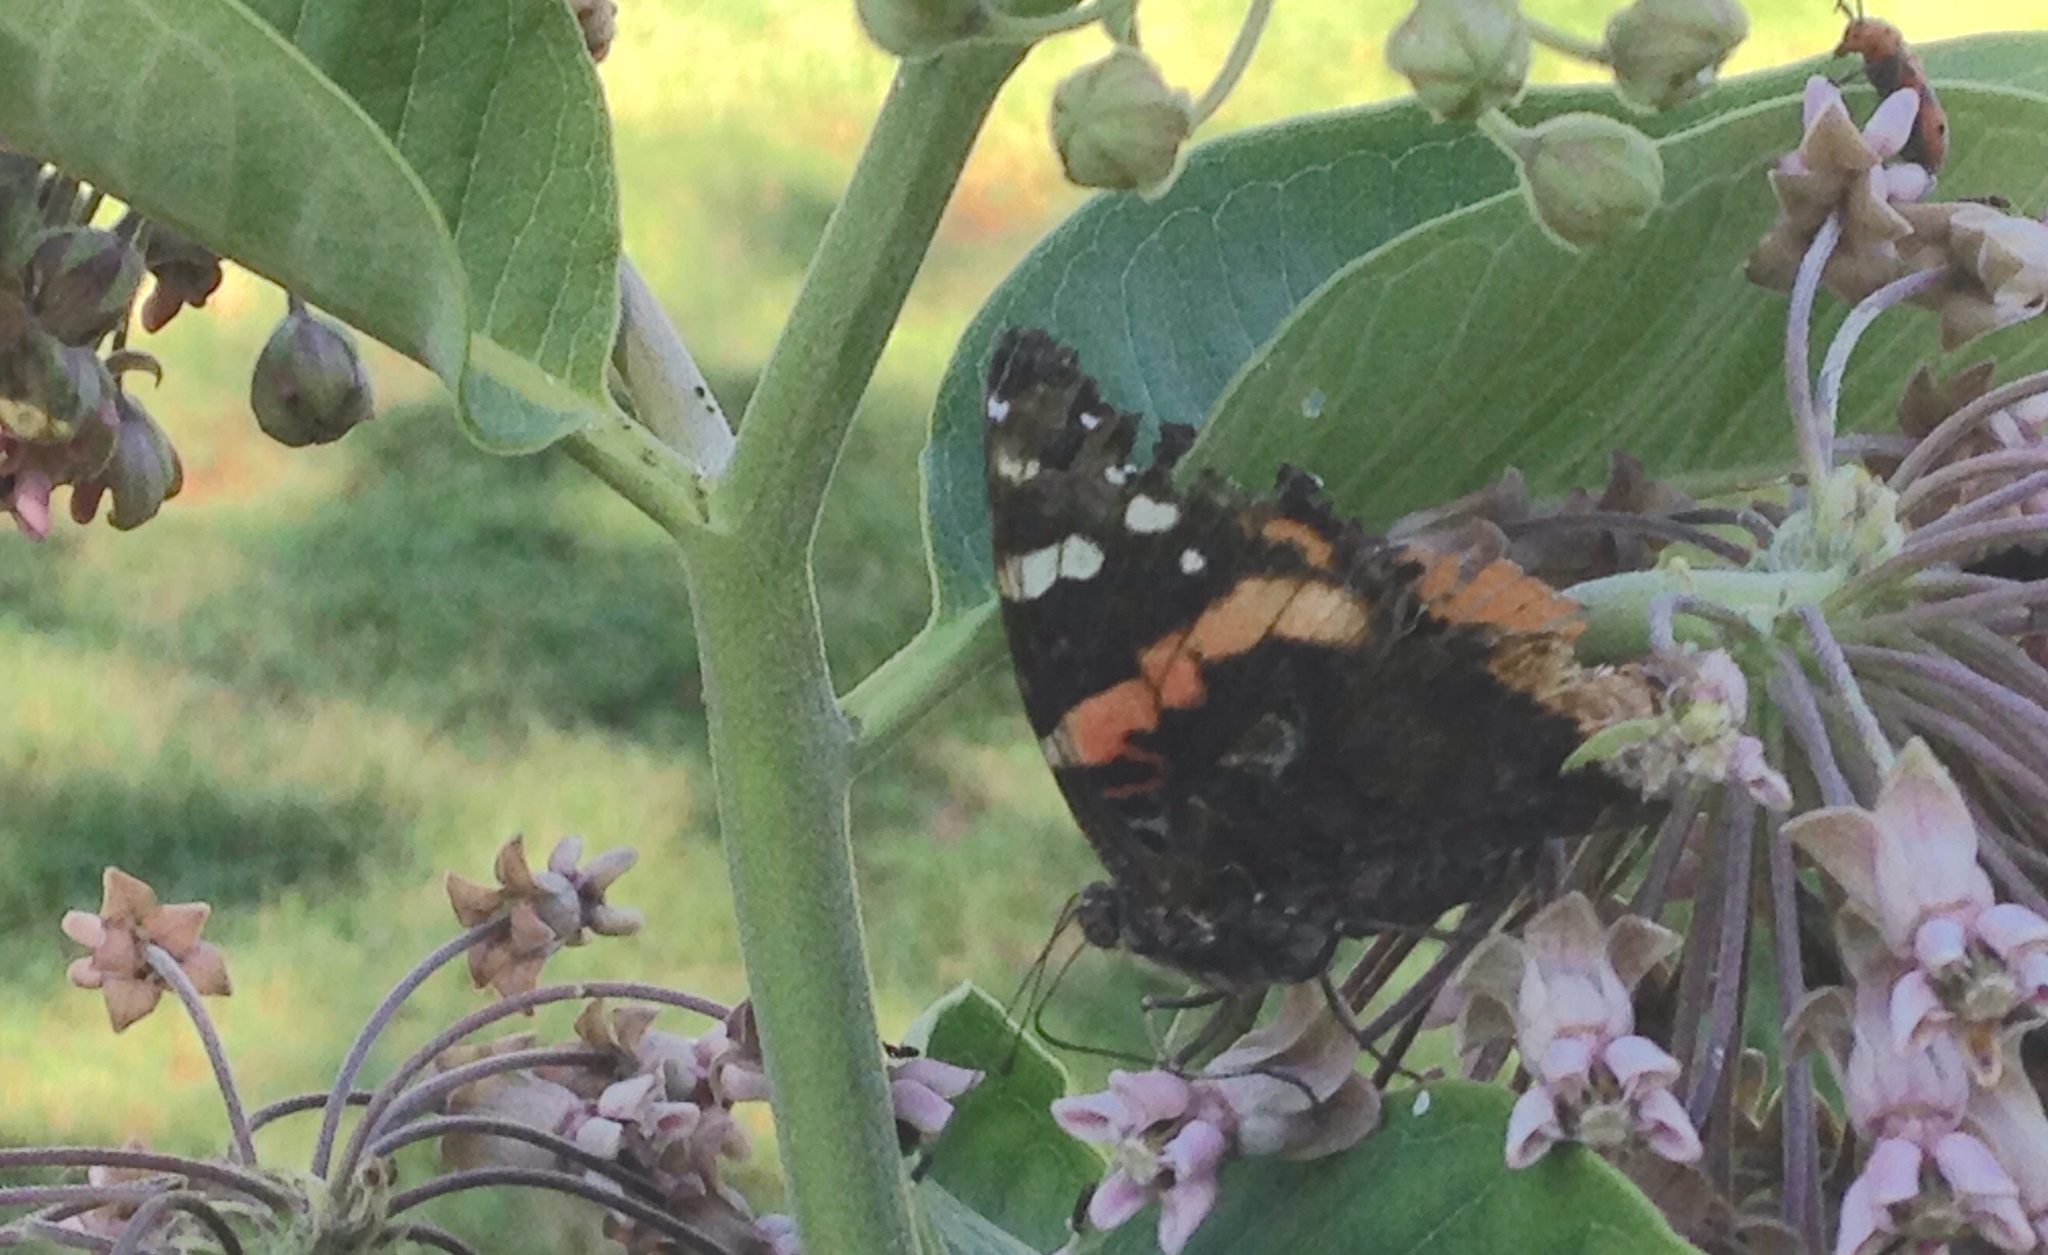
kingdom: Animalia
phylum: Arthropoda
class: Insecta
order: Lepidoptera
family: Nymphalidae
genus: Vanessa
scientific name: Vanessa atalanta
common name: Red admiral
